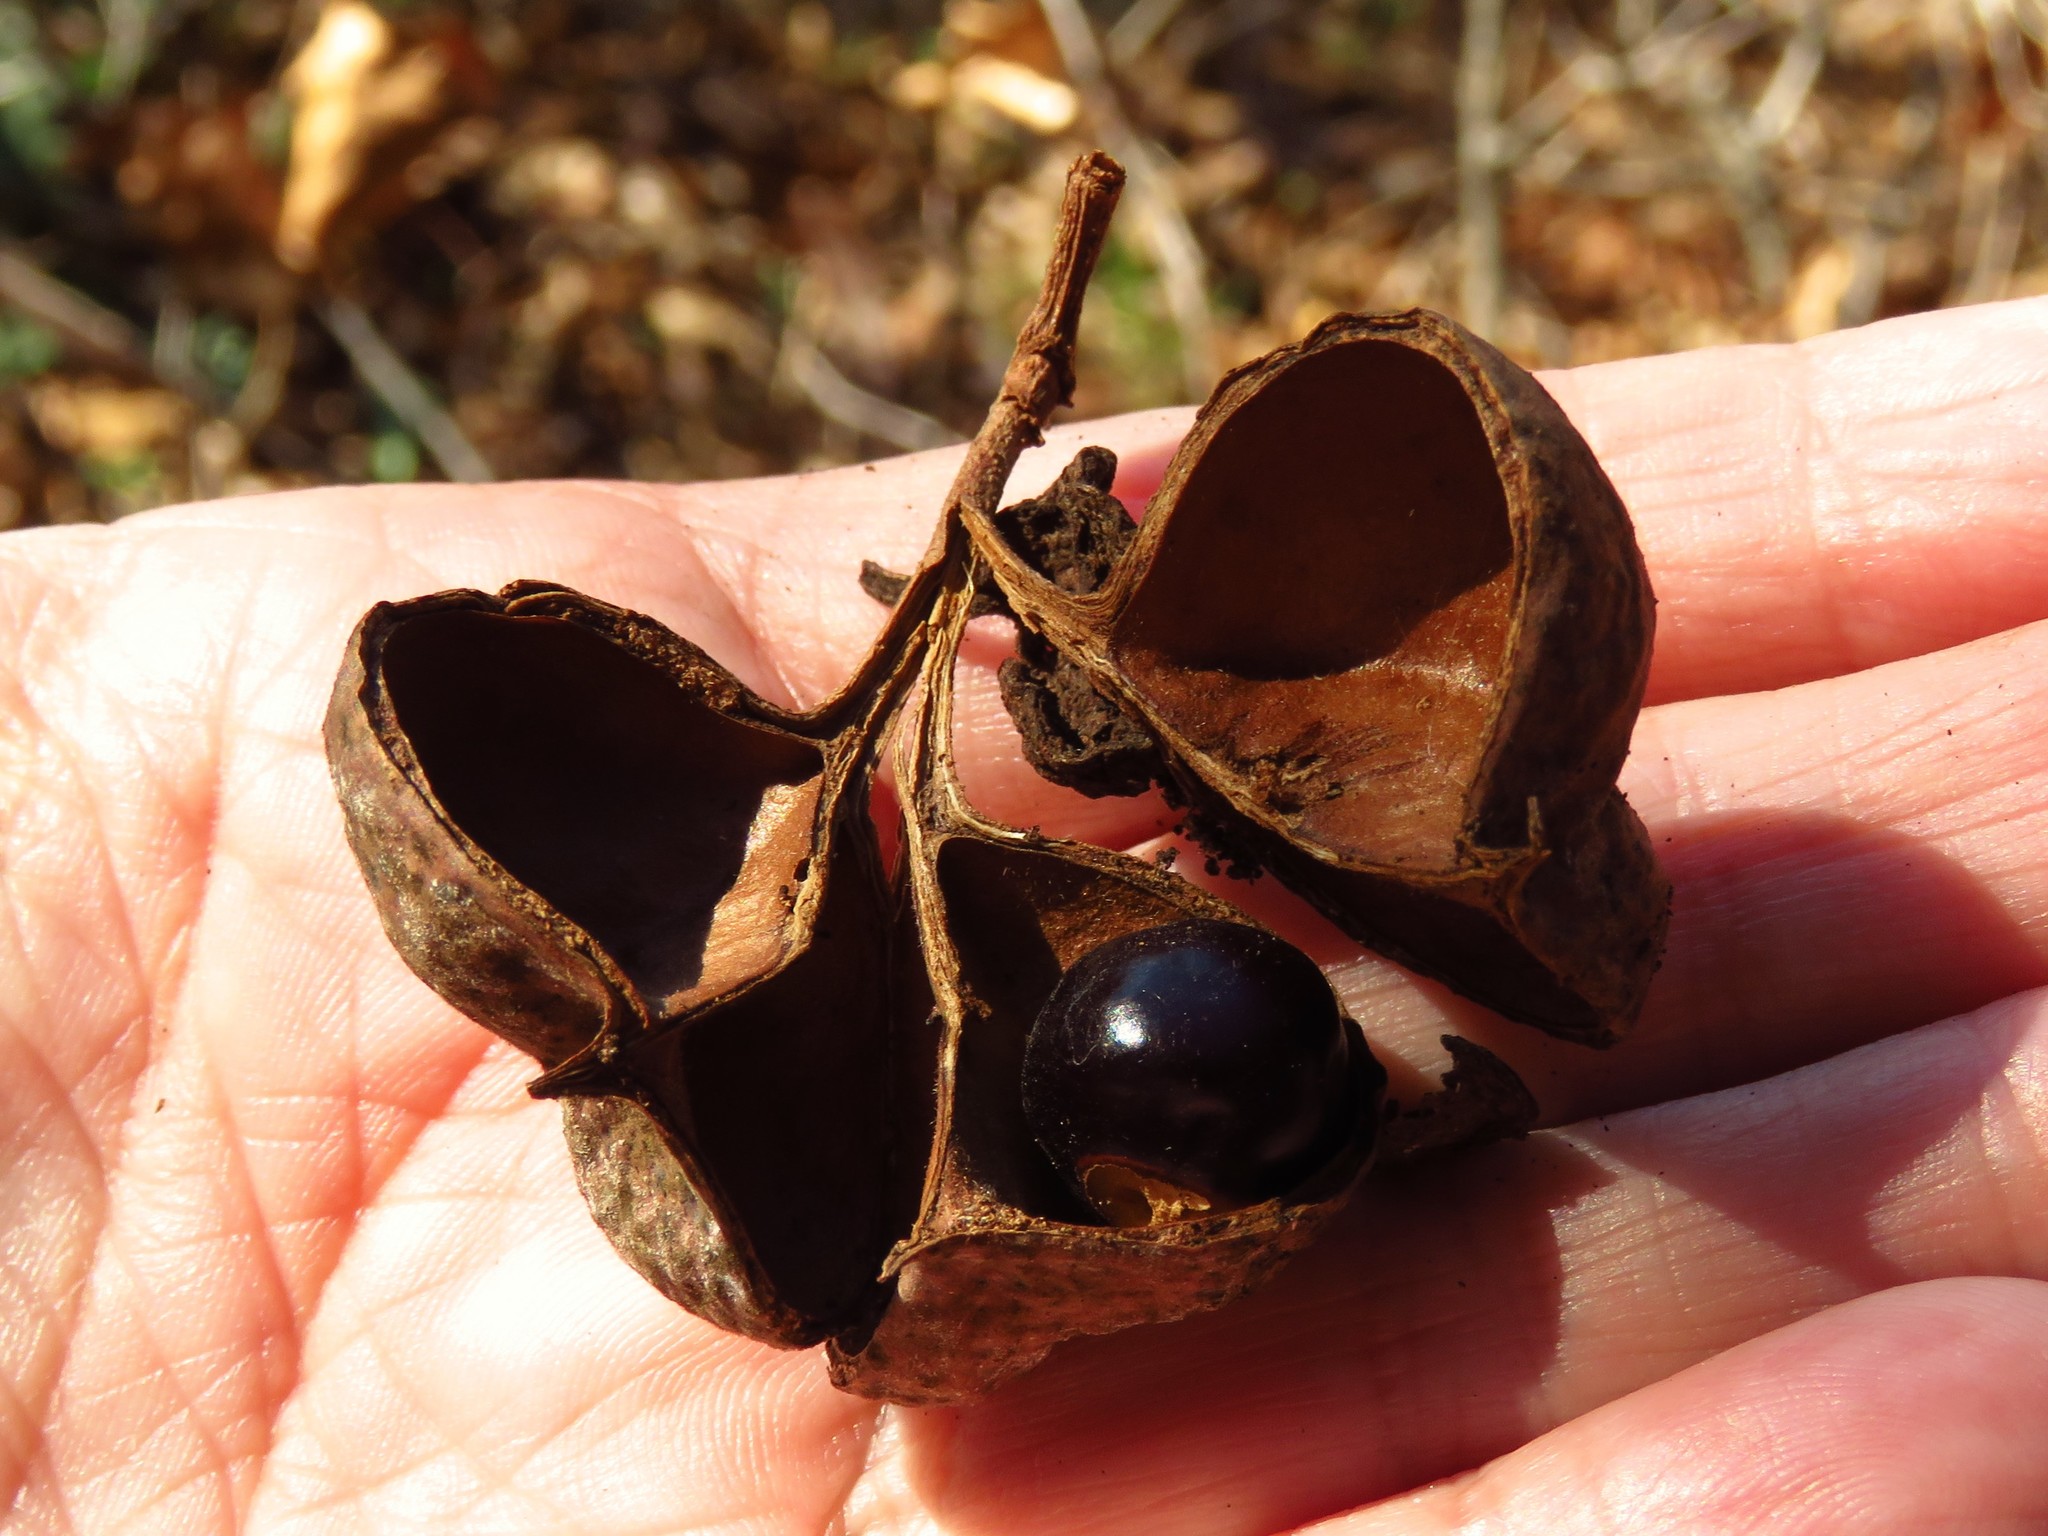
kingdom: Plantae
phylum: Tracheophyta
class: Magnoliopsida
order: Sapindales
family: Sapindaceae
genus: Ungnadia
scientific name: Ungnadia speciosa
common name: Texas-buckeye
